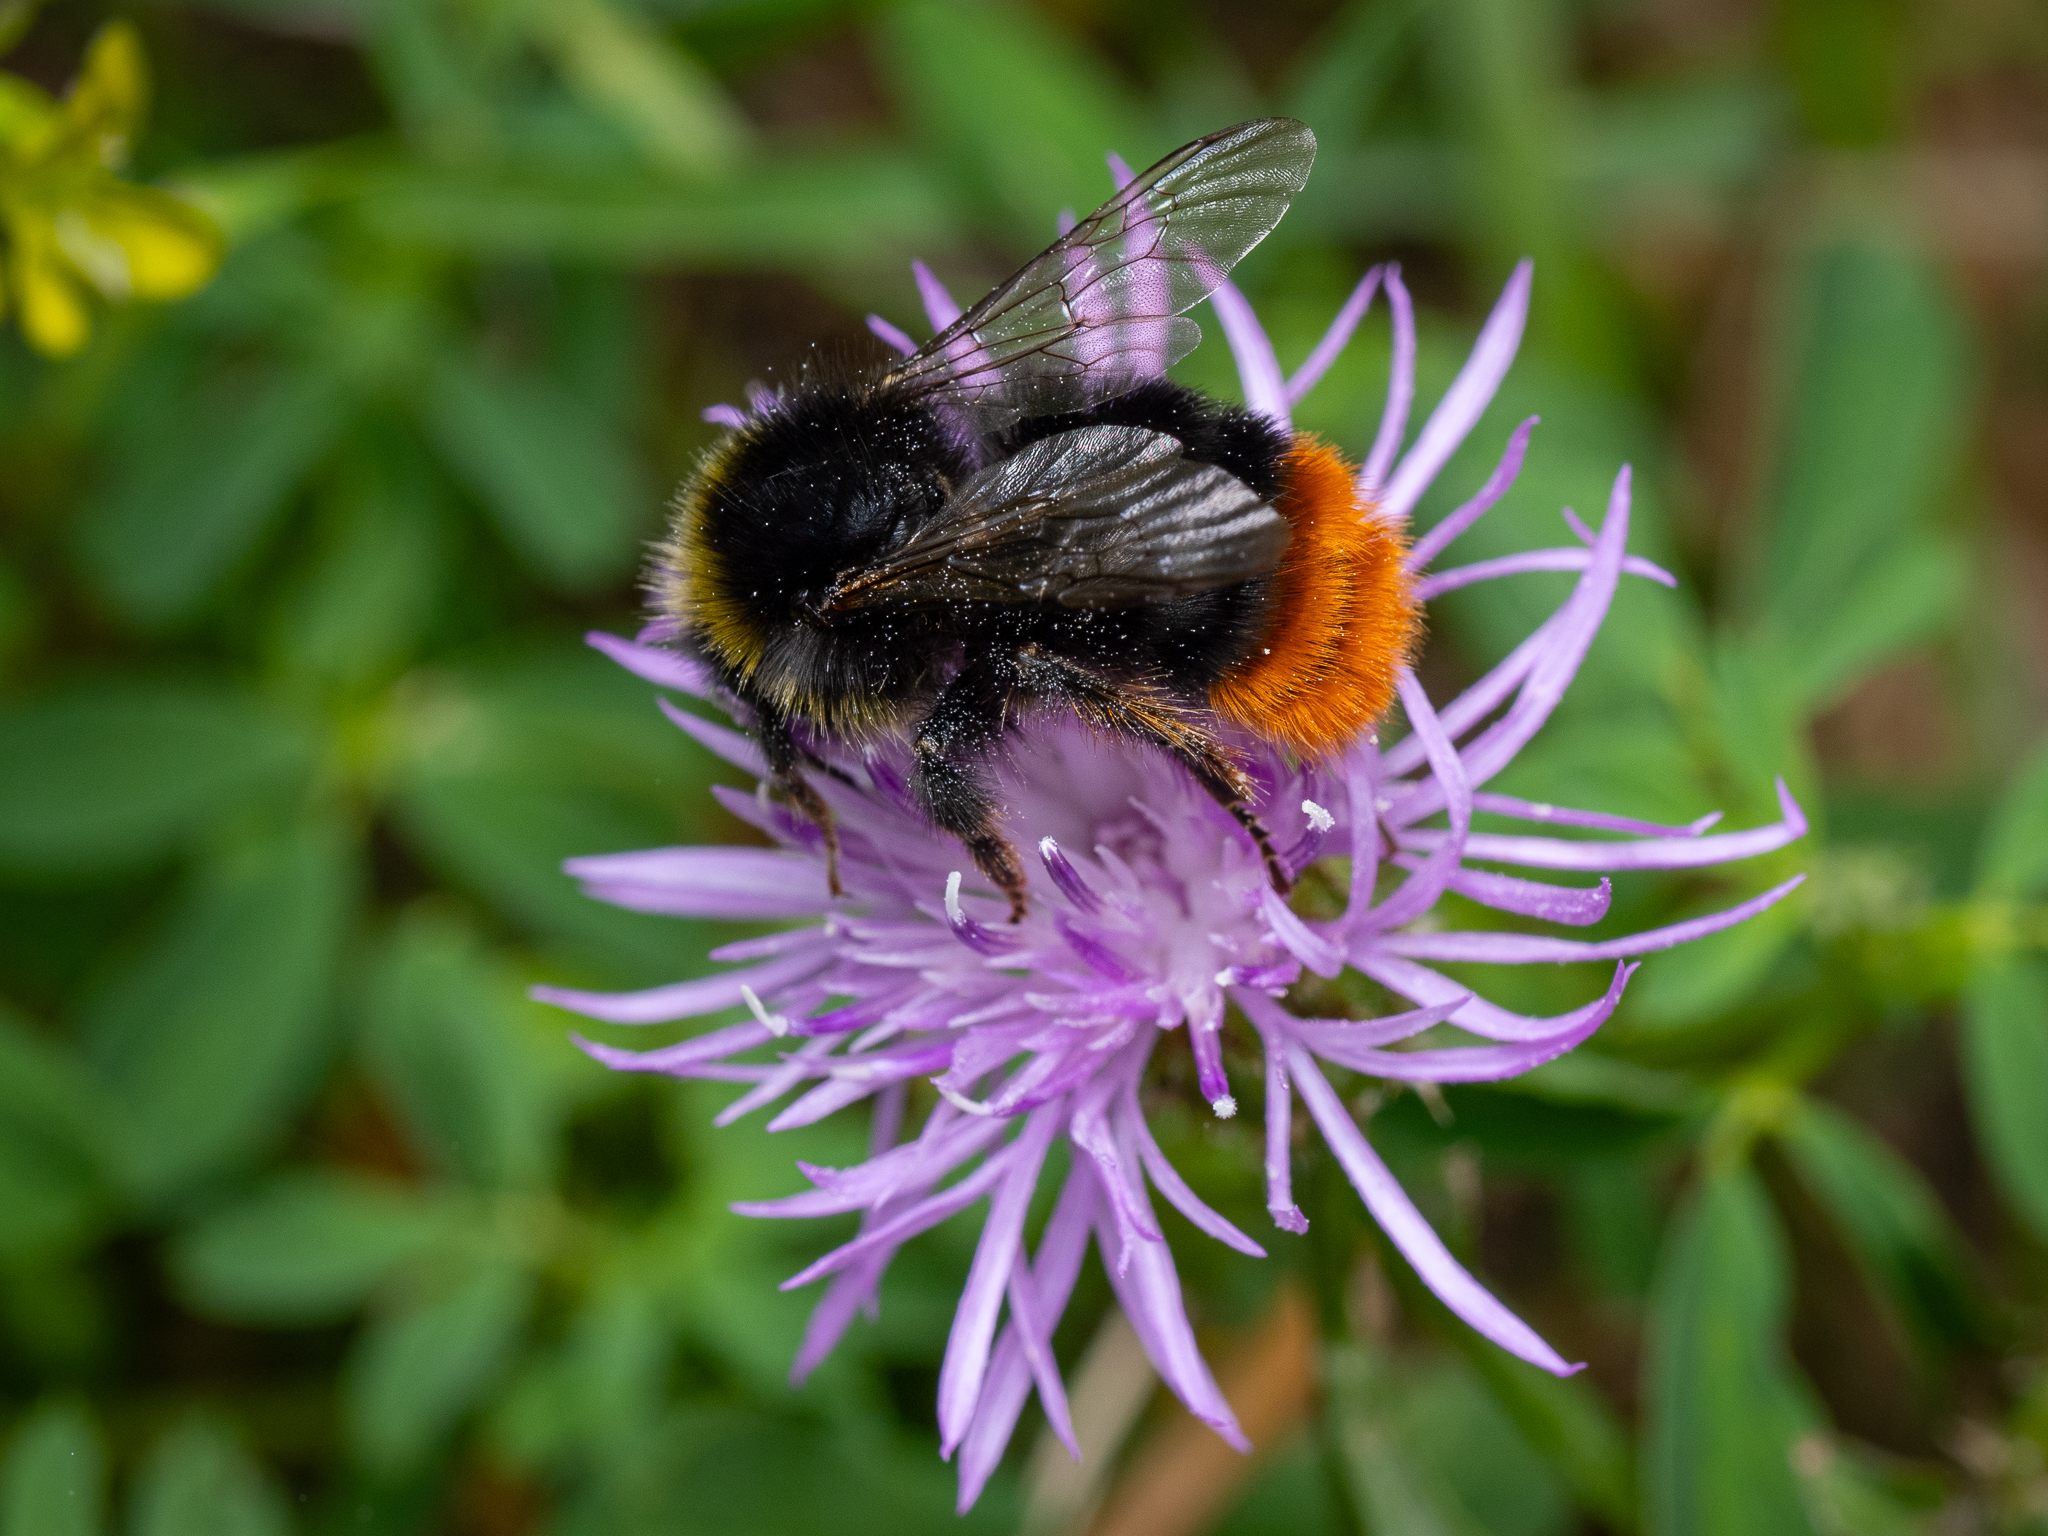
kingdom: Animalia
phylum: Arthropoda
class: Insecta
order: Hymenoptera
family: Apidae
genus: Bombus
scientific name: Bombus lapidarius
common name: Large red-tailed humble-bee
